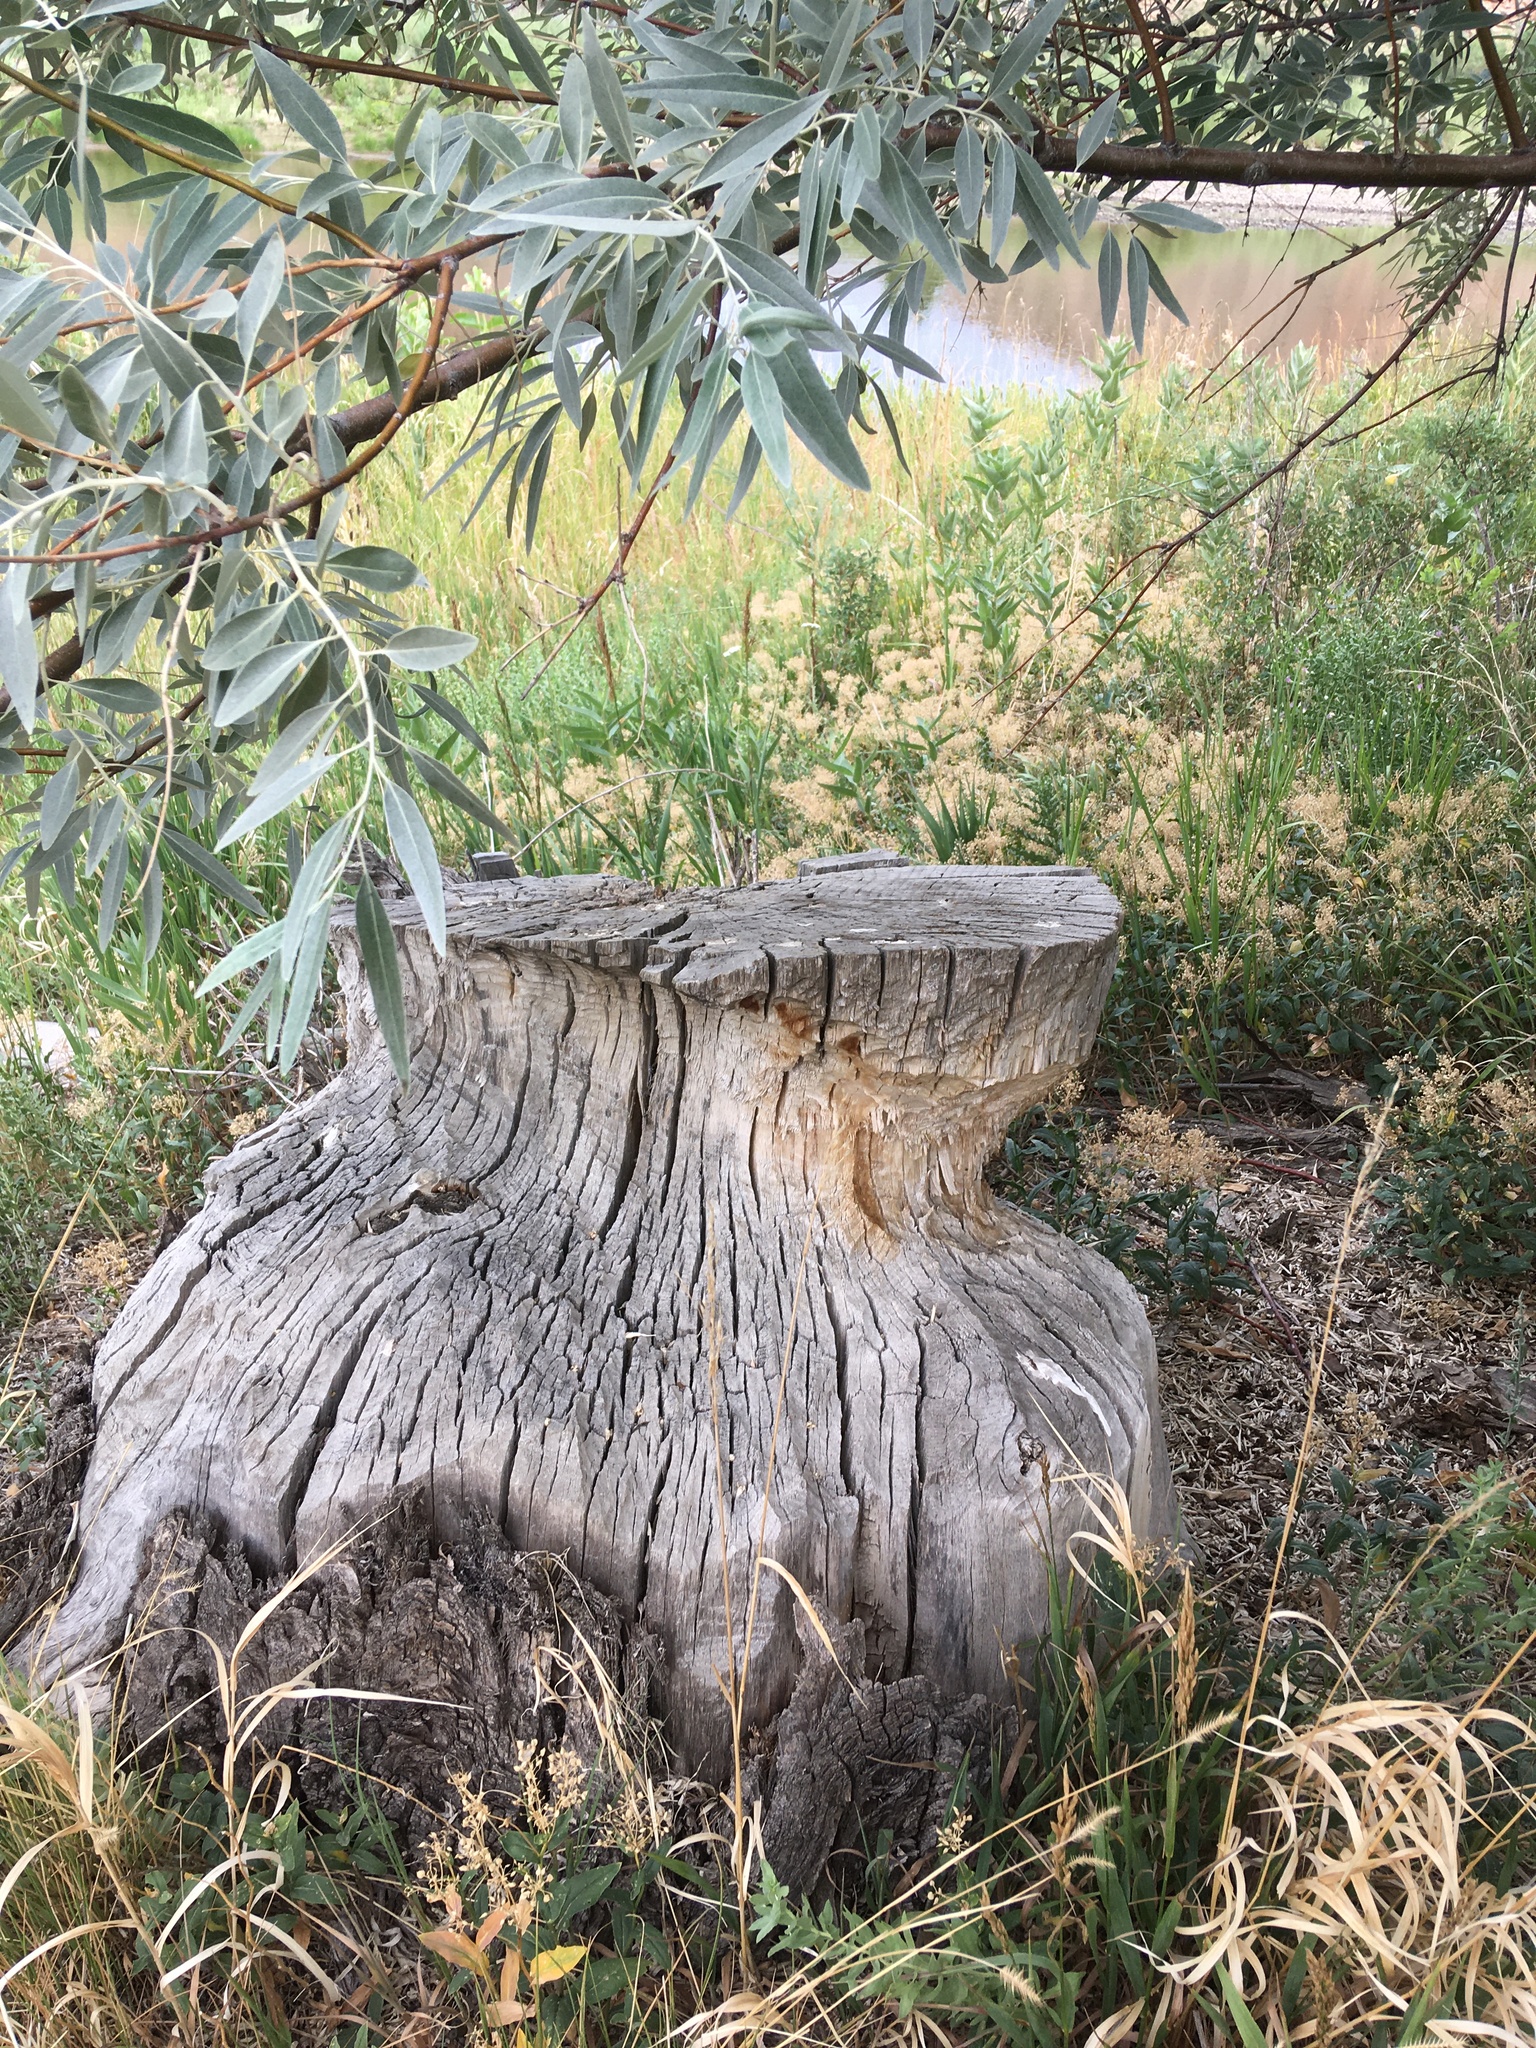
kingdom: Animalia
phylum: Chordata
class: Mammalia
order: Rodentia
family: Castoridae
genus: Castor
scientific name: Castor canadensis
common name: American beaver
